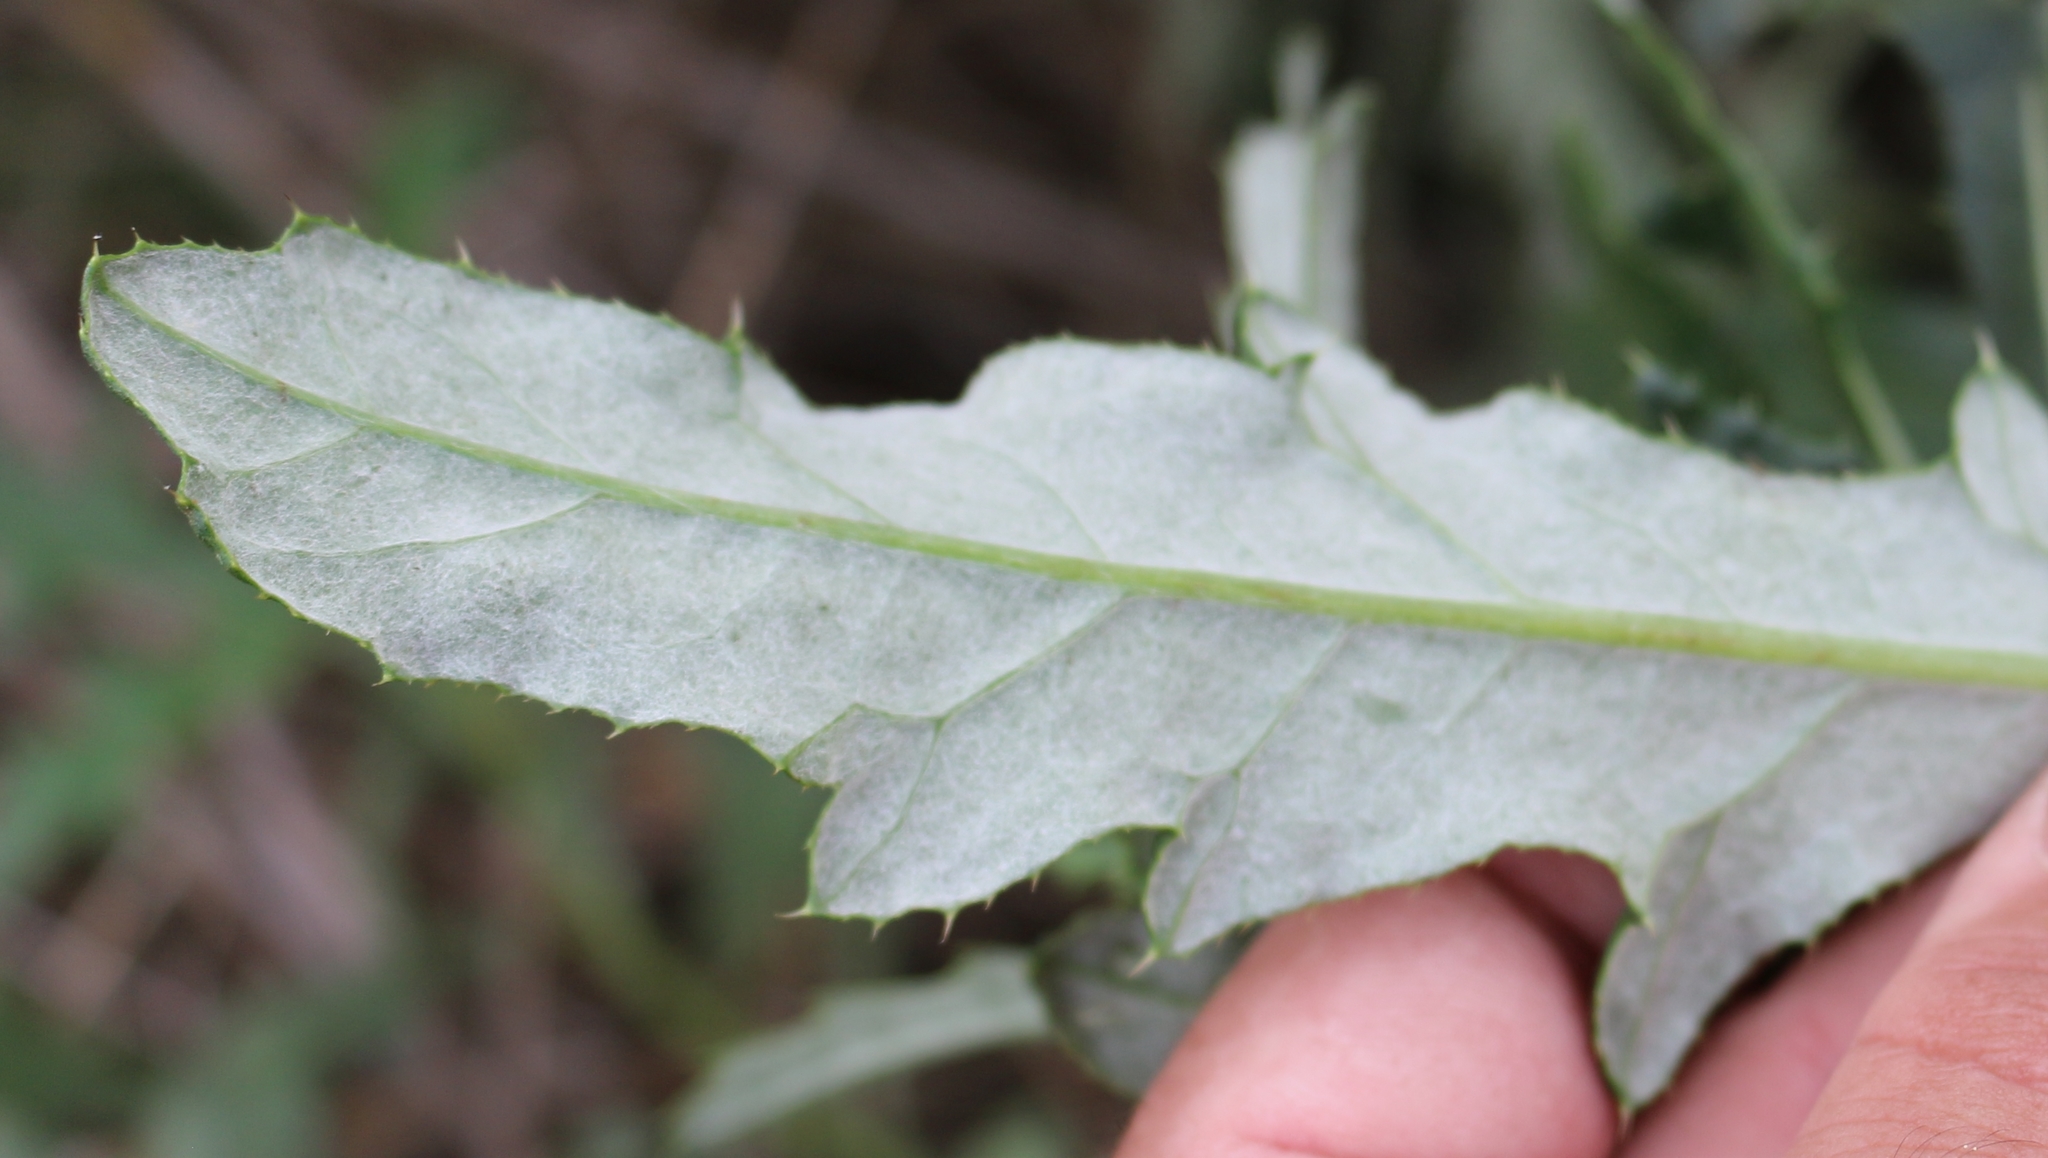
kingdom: Plantae
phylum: Tracheophyta
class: Magnoliopsida
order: Asterales
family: Asteraceae
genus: Cirsium
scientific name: Cirsium arvense
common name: Creeping thistle
